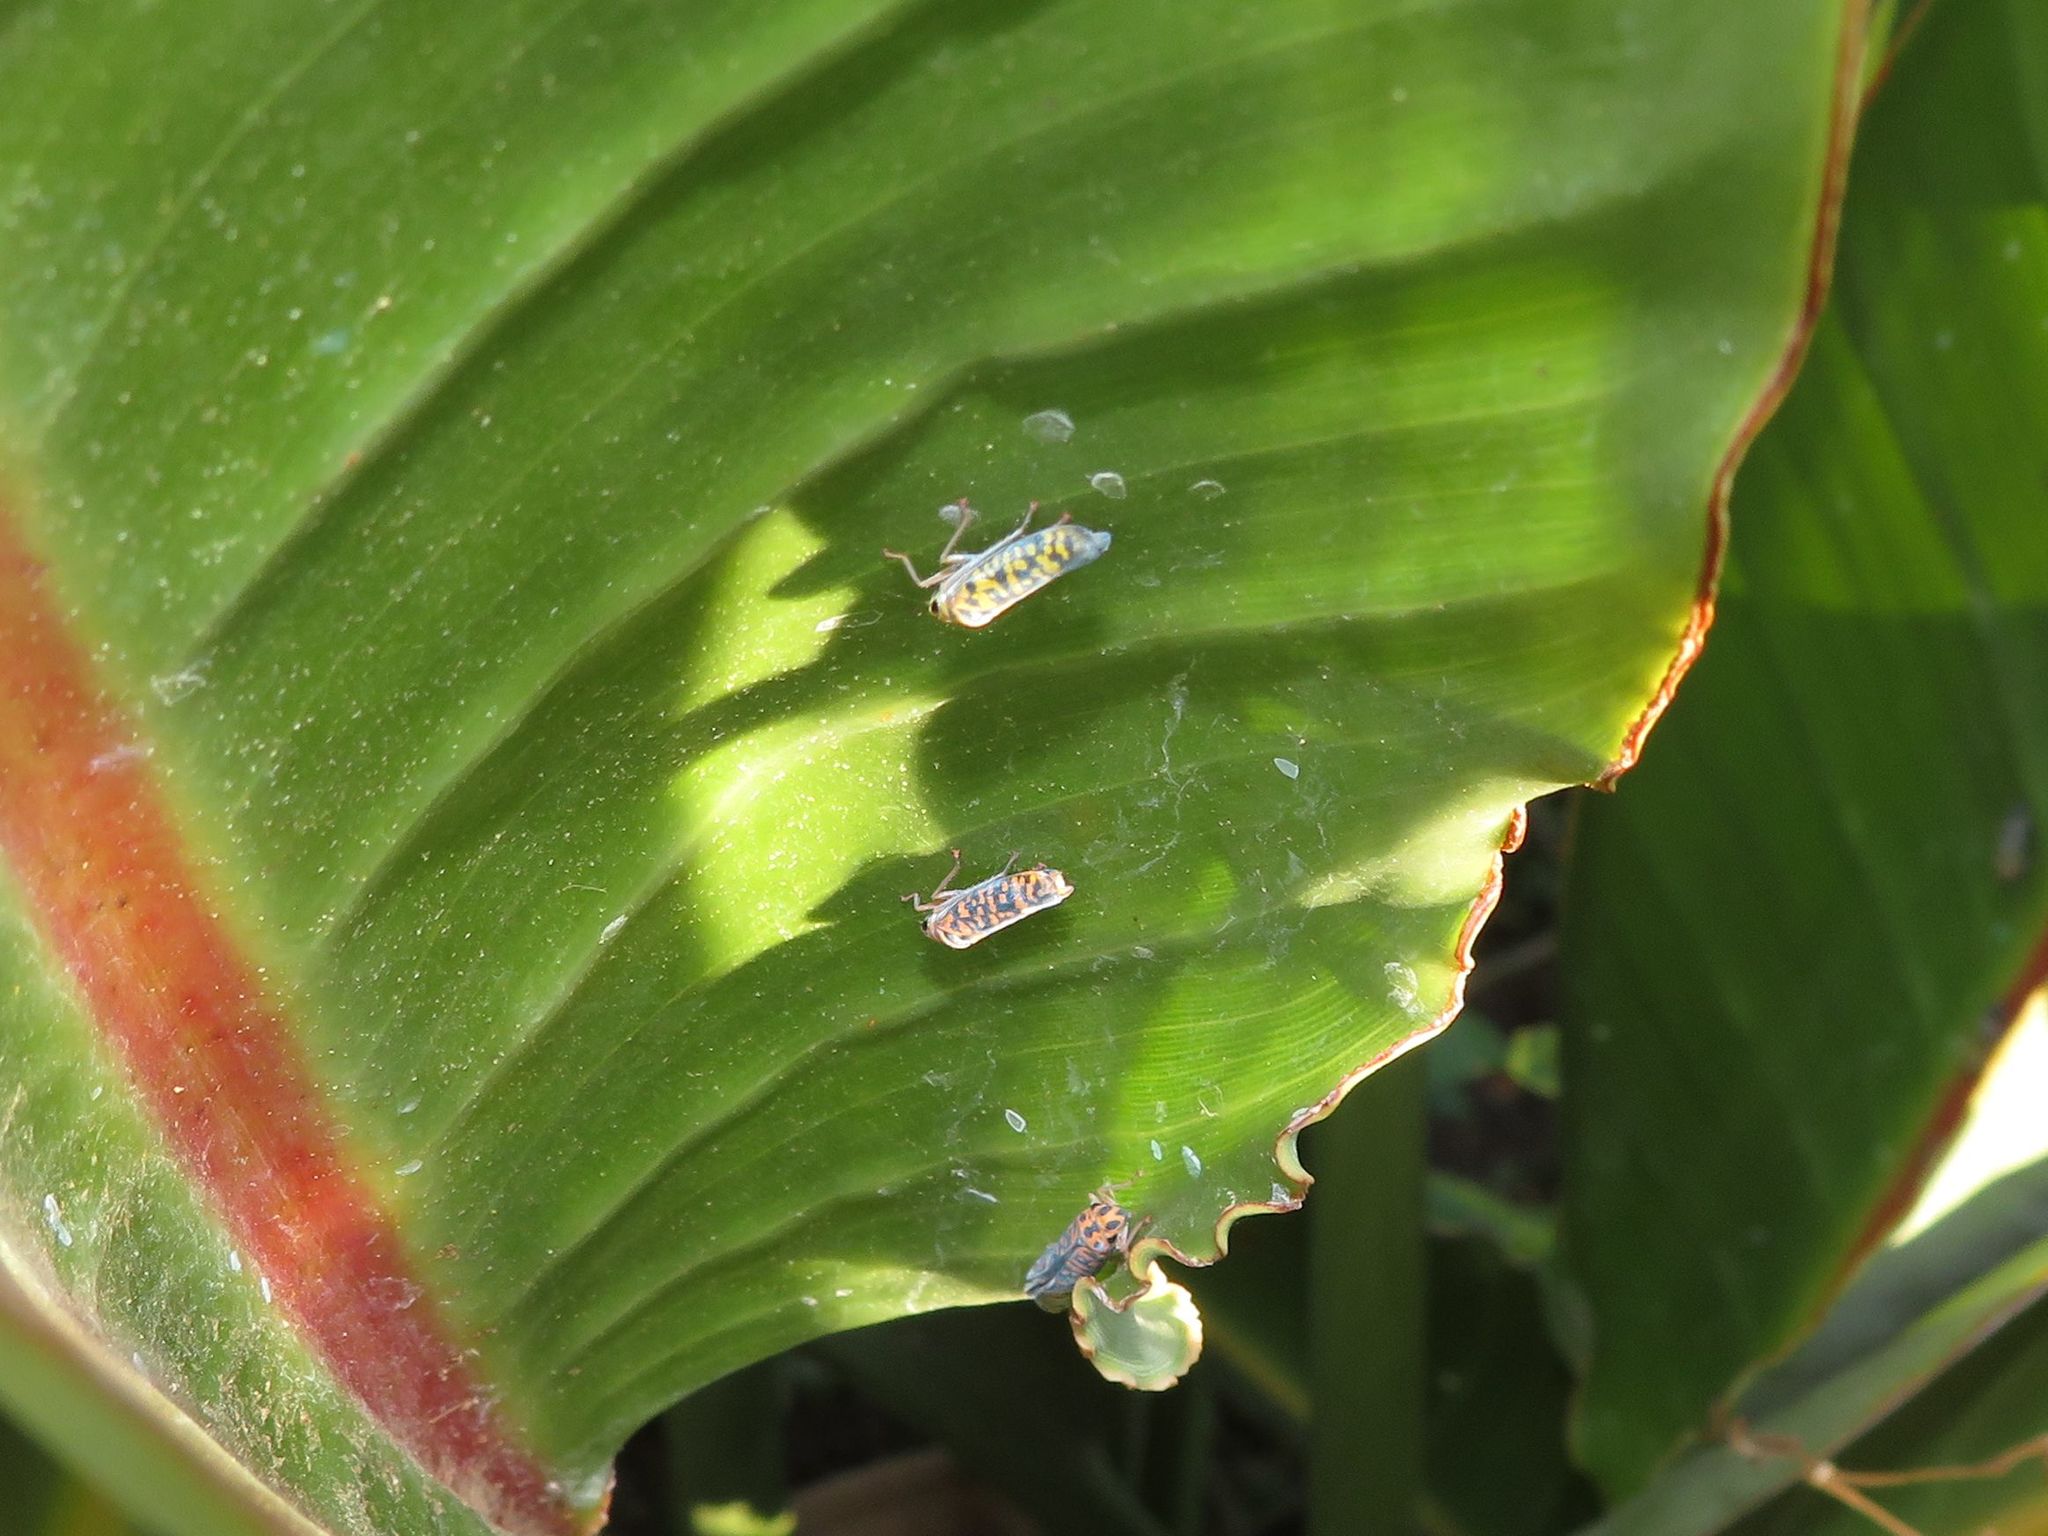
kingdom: Animalia
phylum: Arthropoda
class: Insecta
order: Hemiptera
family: Cicadellidae
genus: Pawiloma
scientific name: Pawiloma victima
